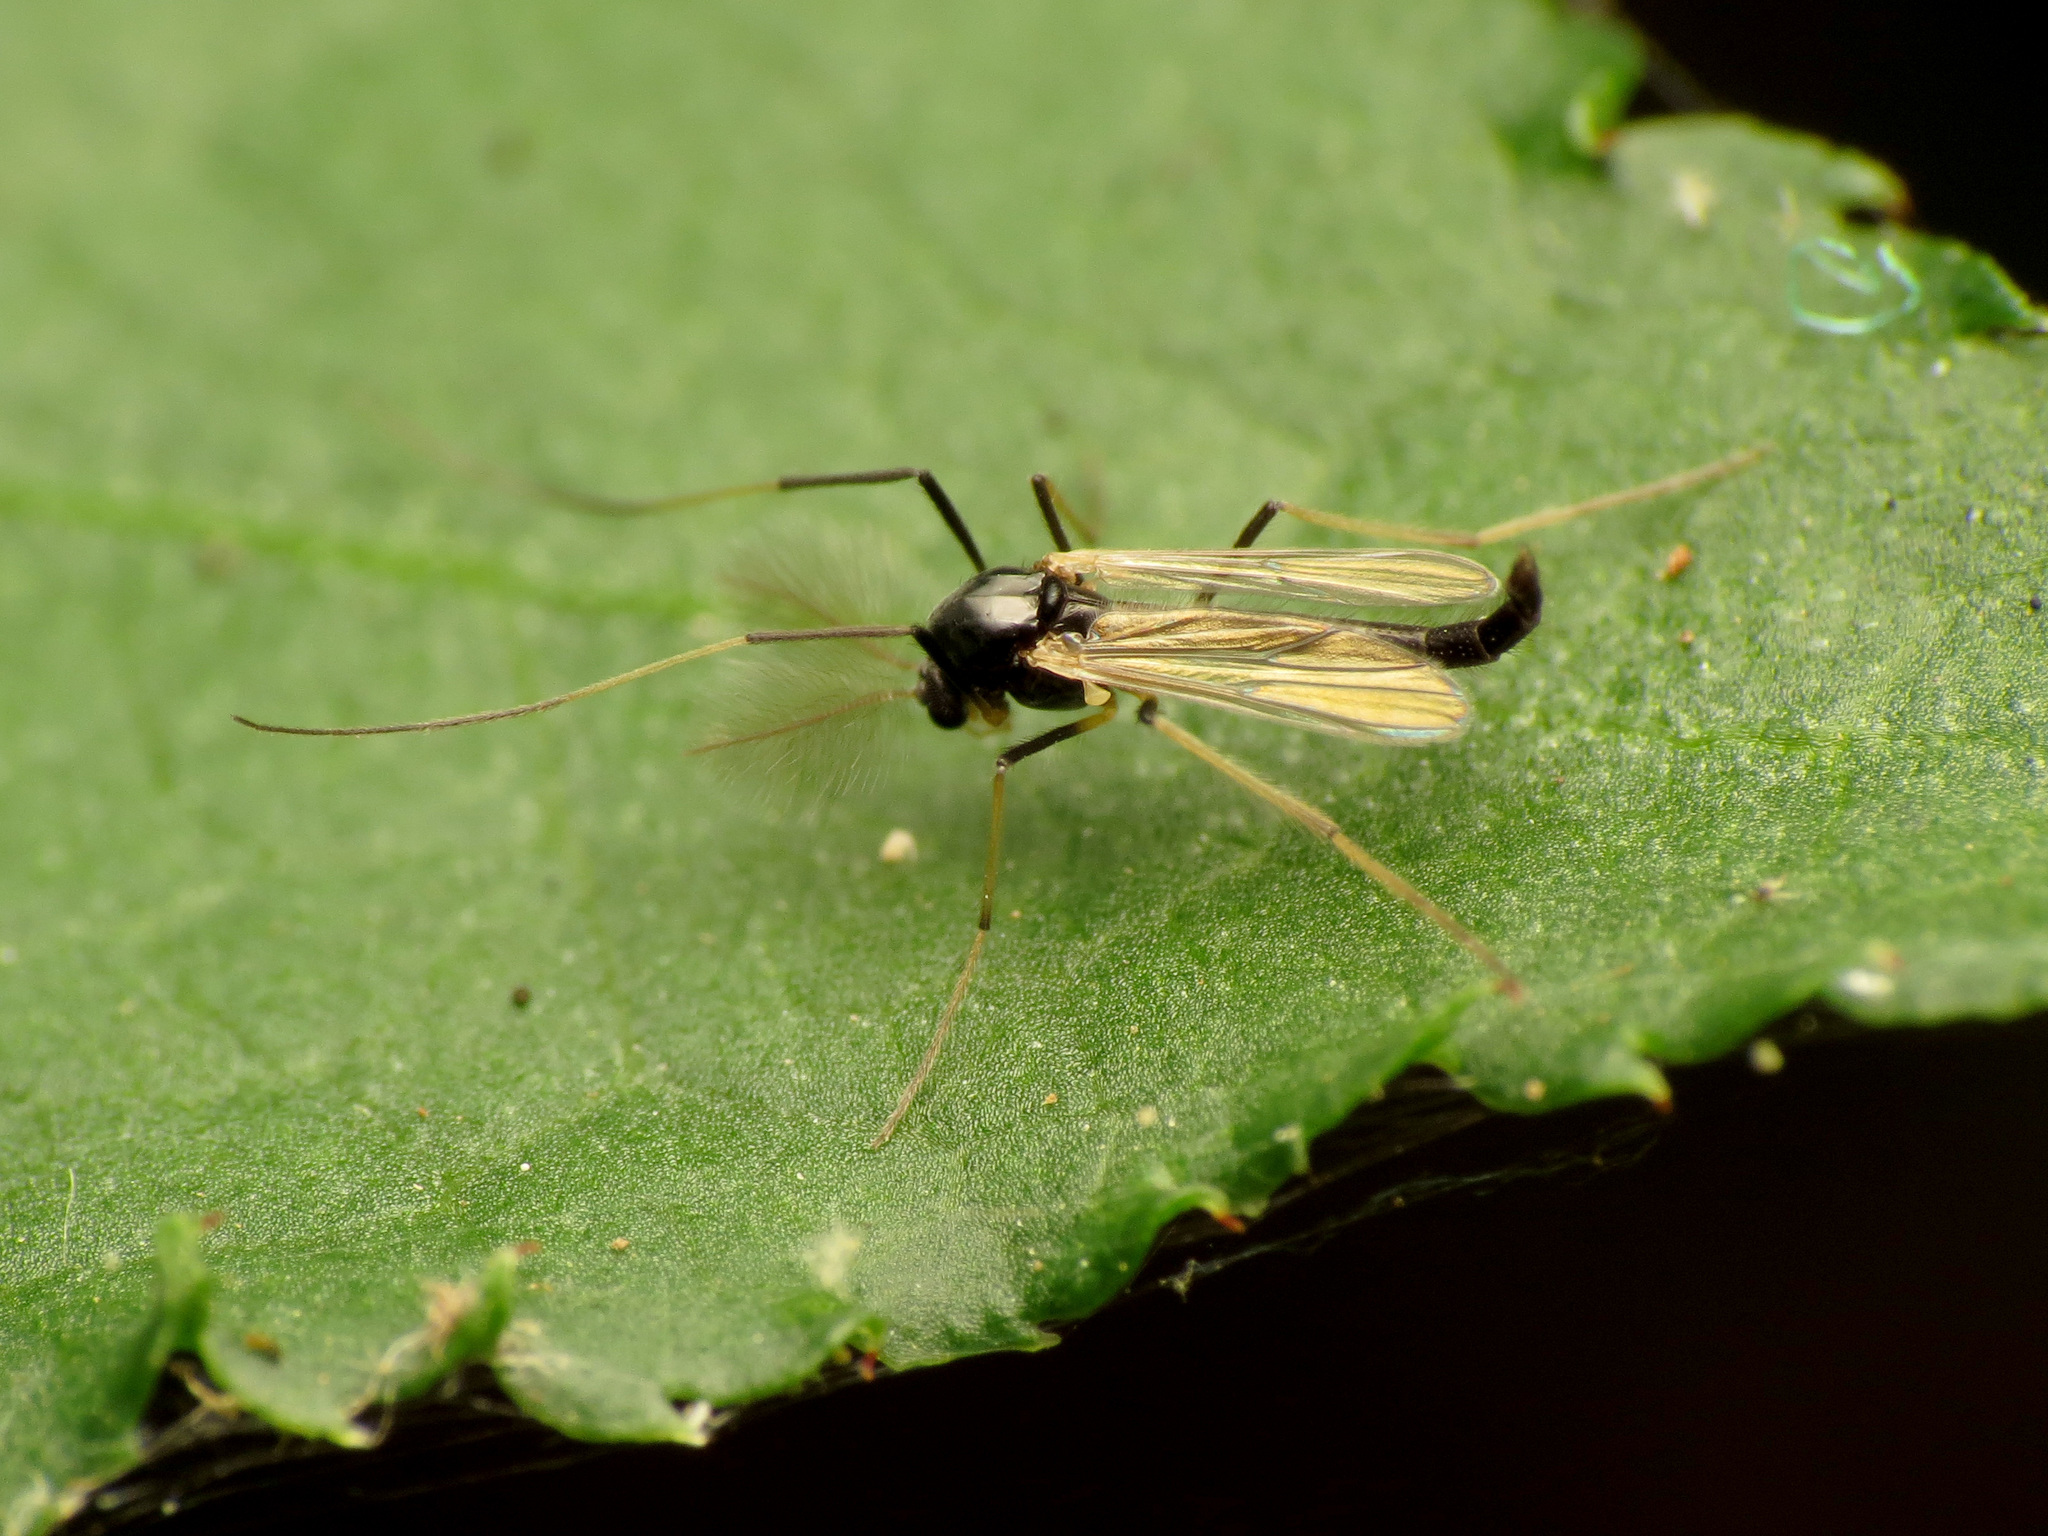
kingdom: Animalia
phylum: Arthropoda
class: Insecta
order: Diptera
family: Chironomidae
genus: Paratendipes
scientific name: Paratendipes albimanus
